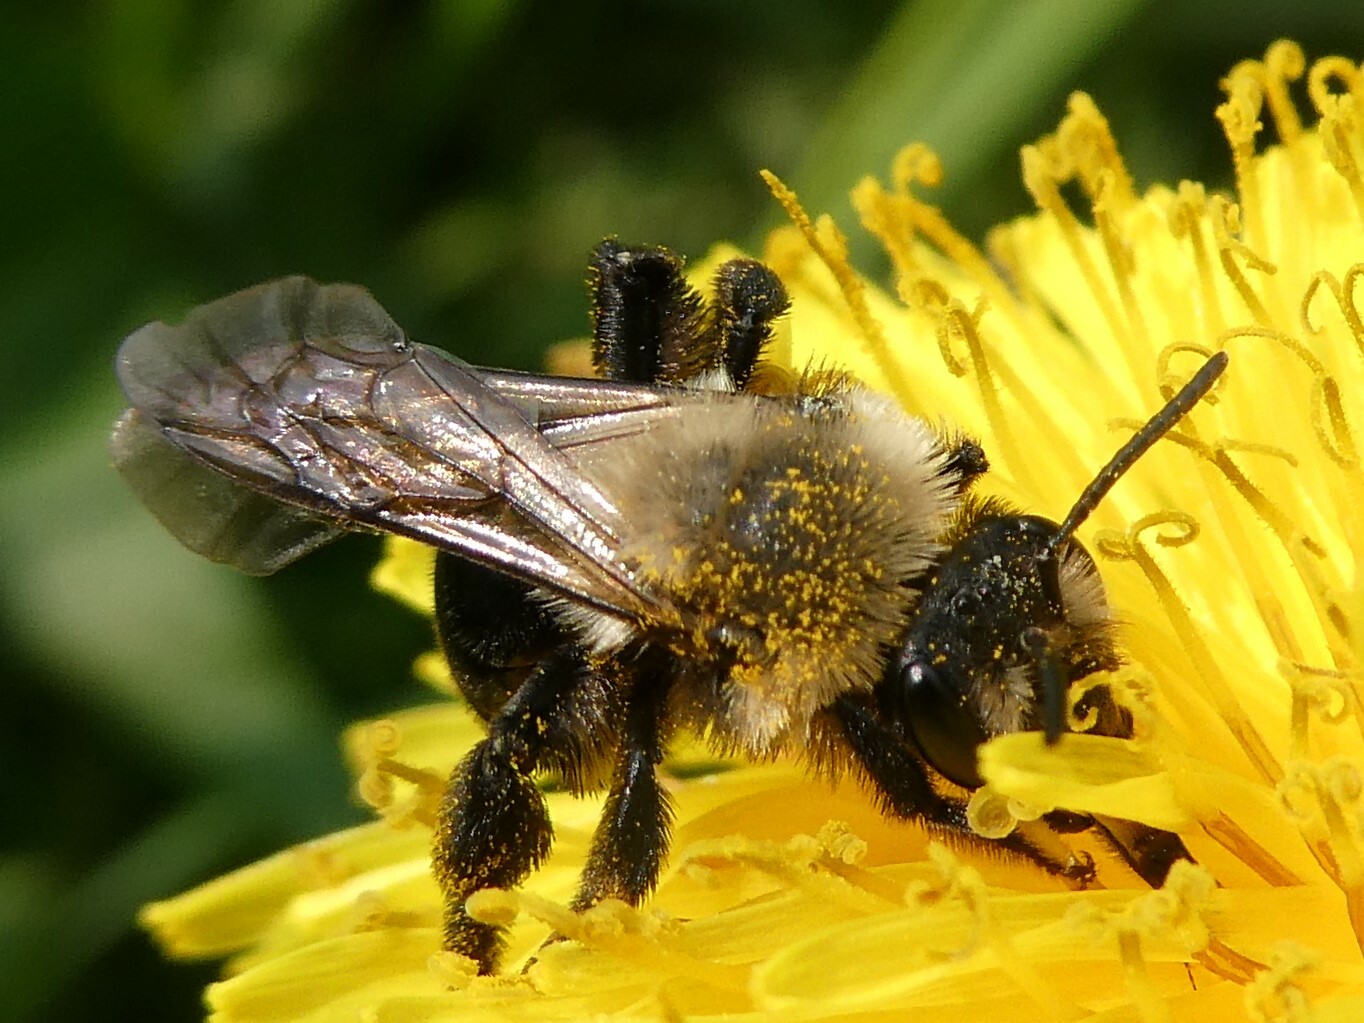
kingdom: Animalia
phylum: Arthropoda
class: Insecta
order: Hymenoptera
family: Andrenidae
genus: Andrena
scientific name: Andrena carlini
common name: Carlin's mining bee
